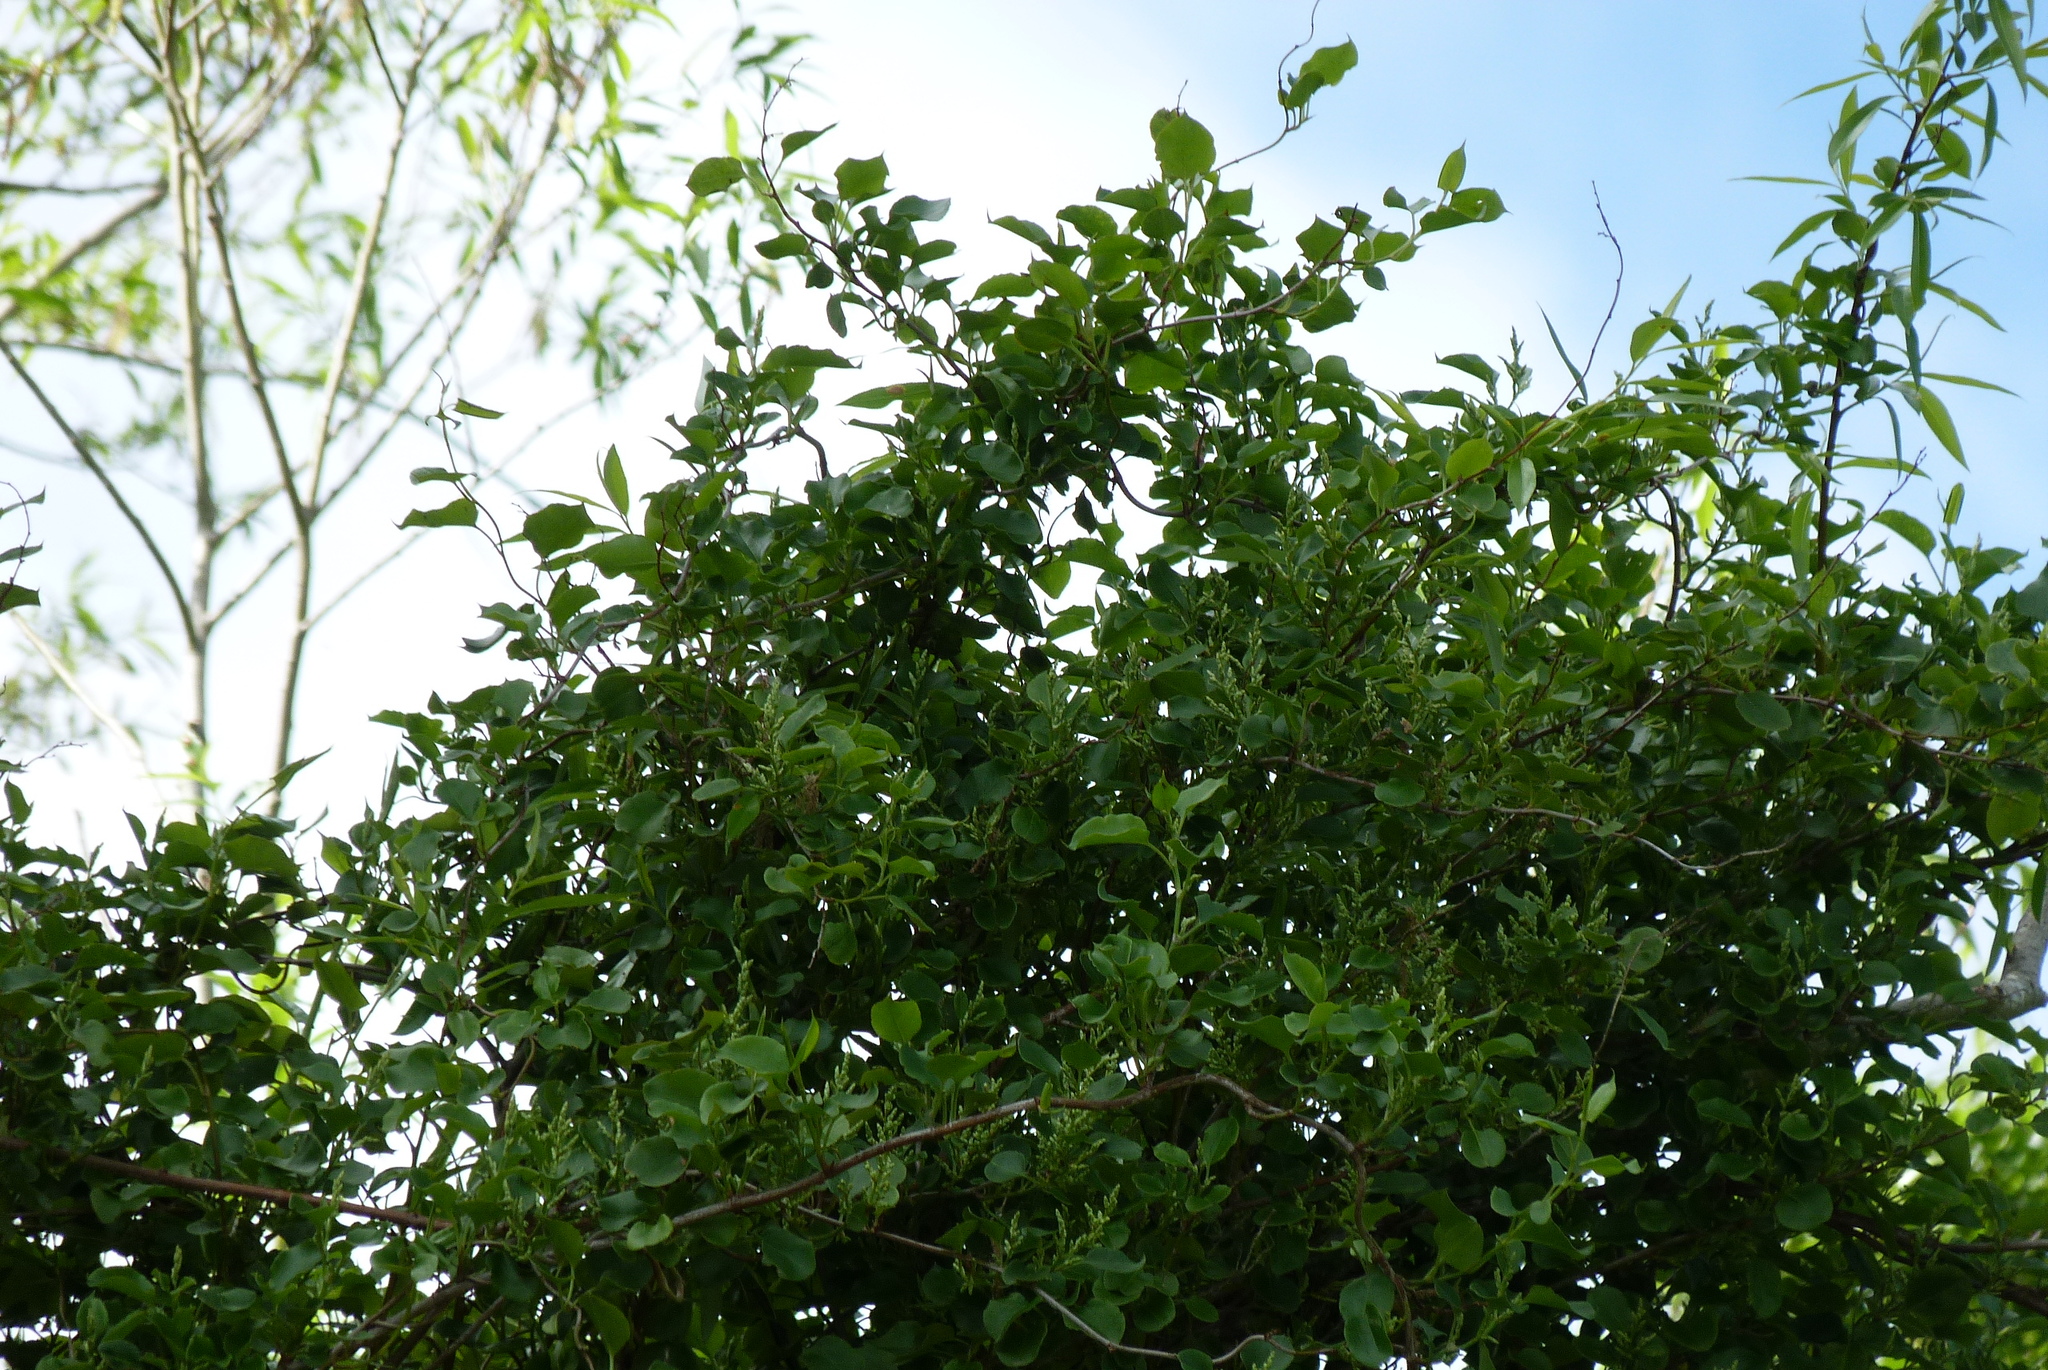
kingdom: Plantae
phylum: Tracheophyta
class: Magnoliopsida
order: Caryophyllales
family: Polygonaceae
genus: Muehlenbeckia
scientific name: Muehlenbeckia australis
